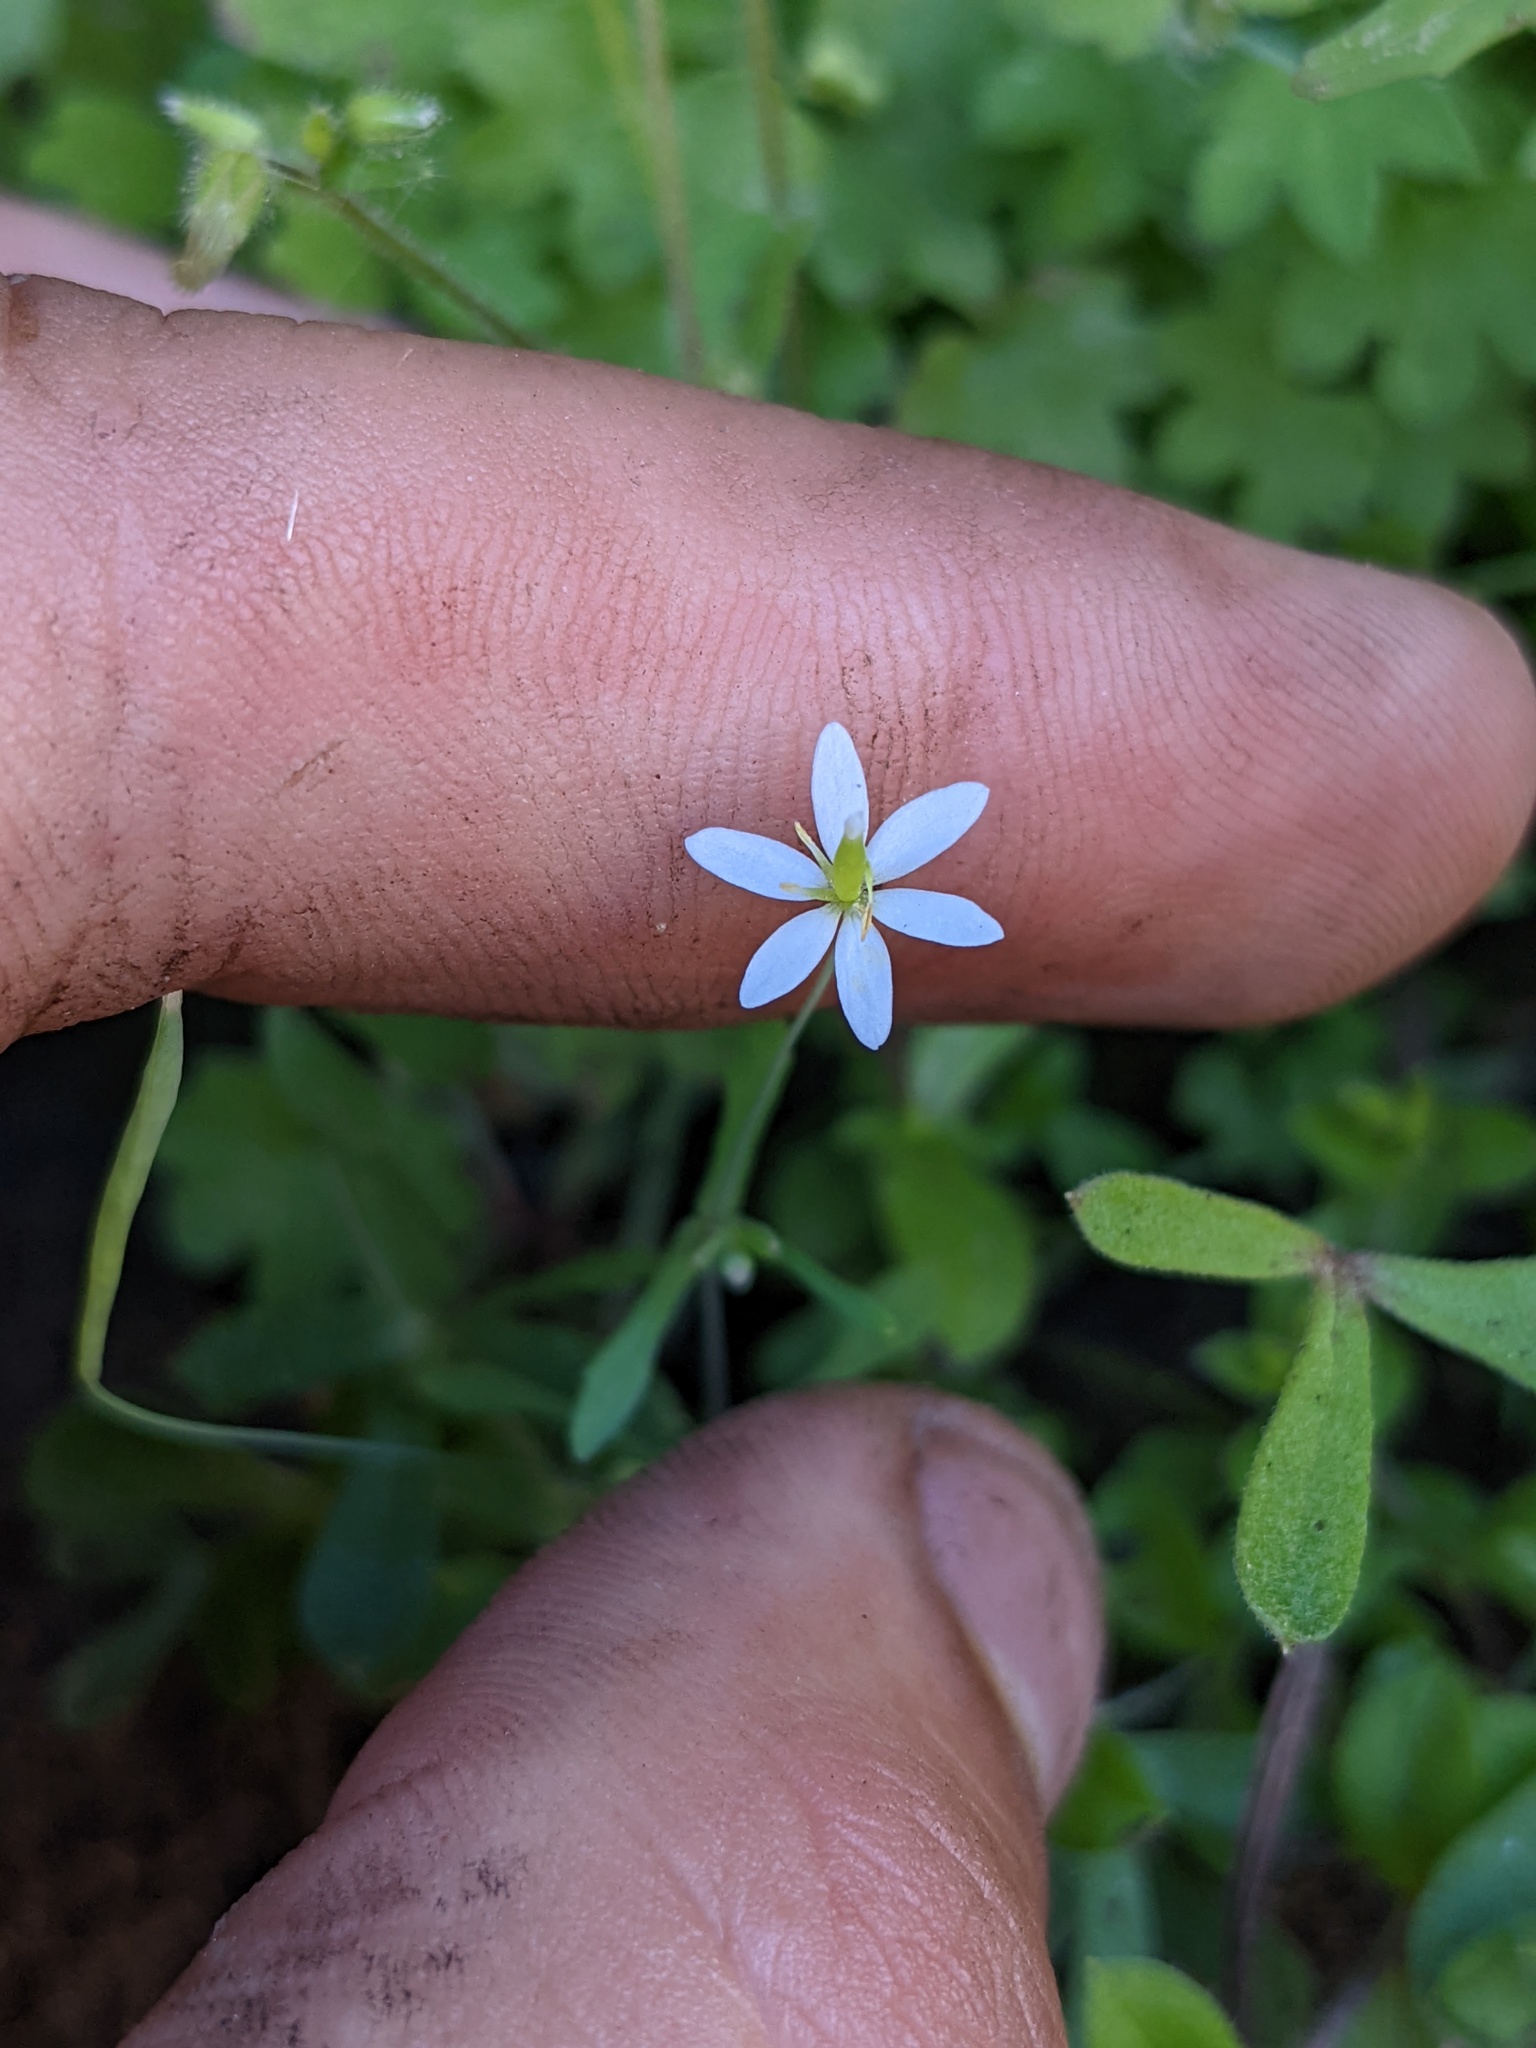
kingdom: Plantae
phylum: Tracheophyta
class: Magnoliopsida
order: Ranunculales
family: Papaveraceae
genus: Meconella
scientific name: Meconella denticulata
